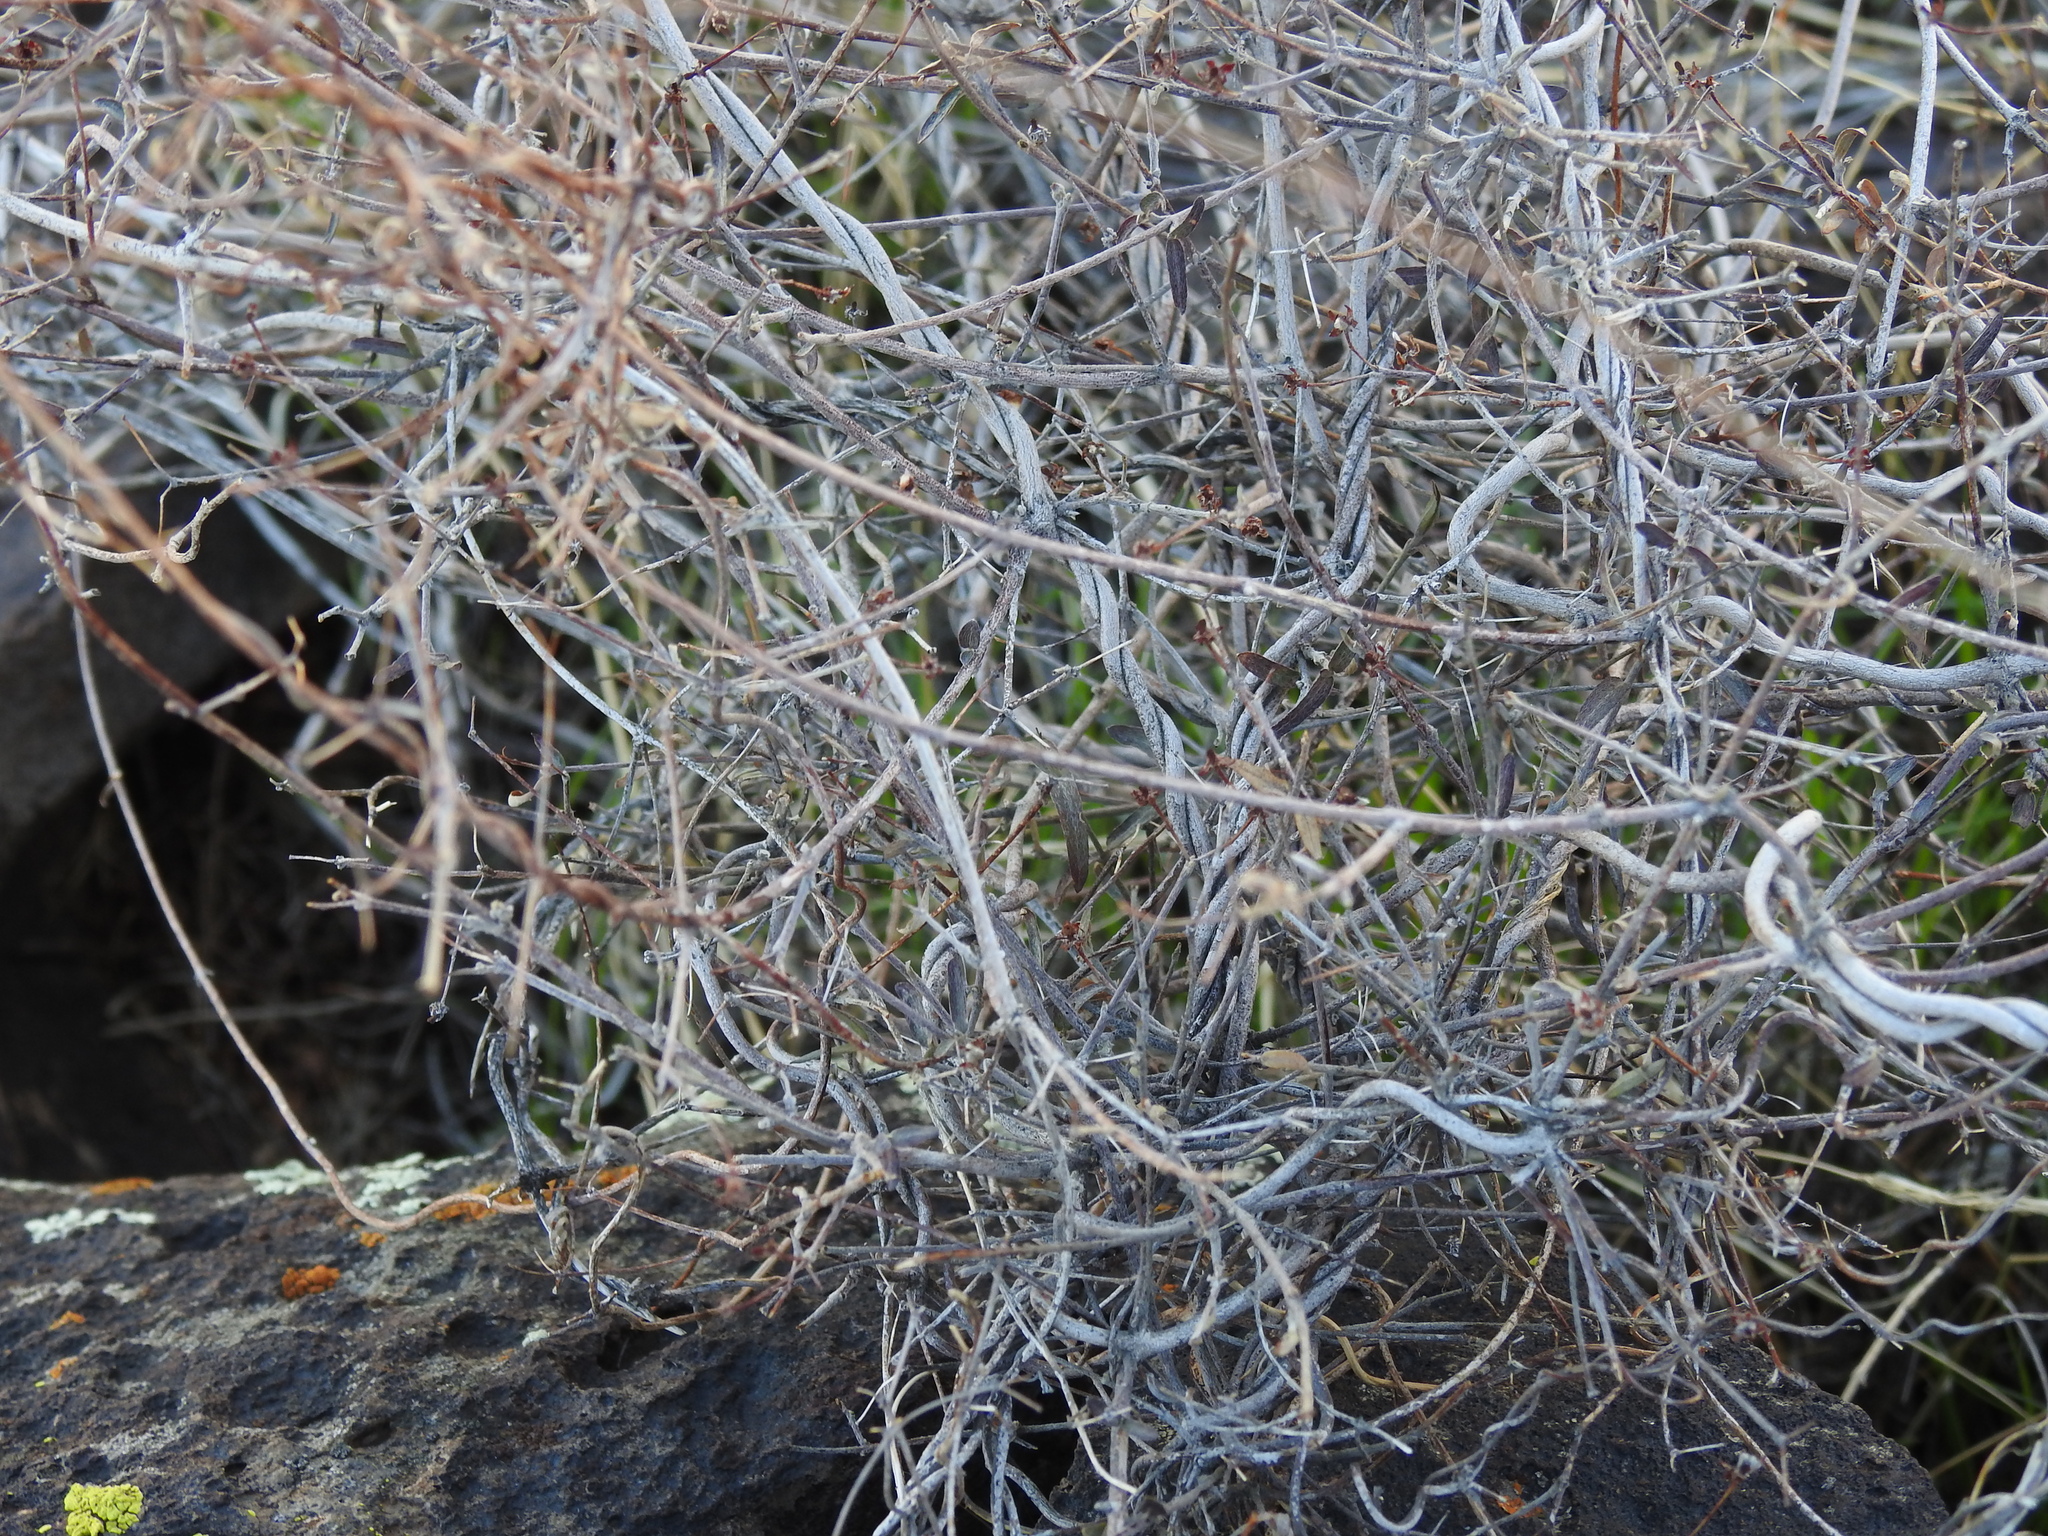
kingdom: Plantae
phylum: Tracheophyta
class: Magnoliopsida
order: Malpighiales
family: Malpighiaceae
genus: Cottsia
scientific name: Cottsia gracilis
